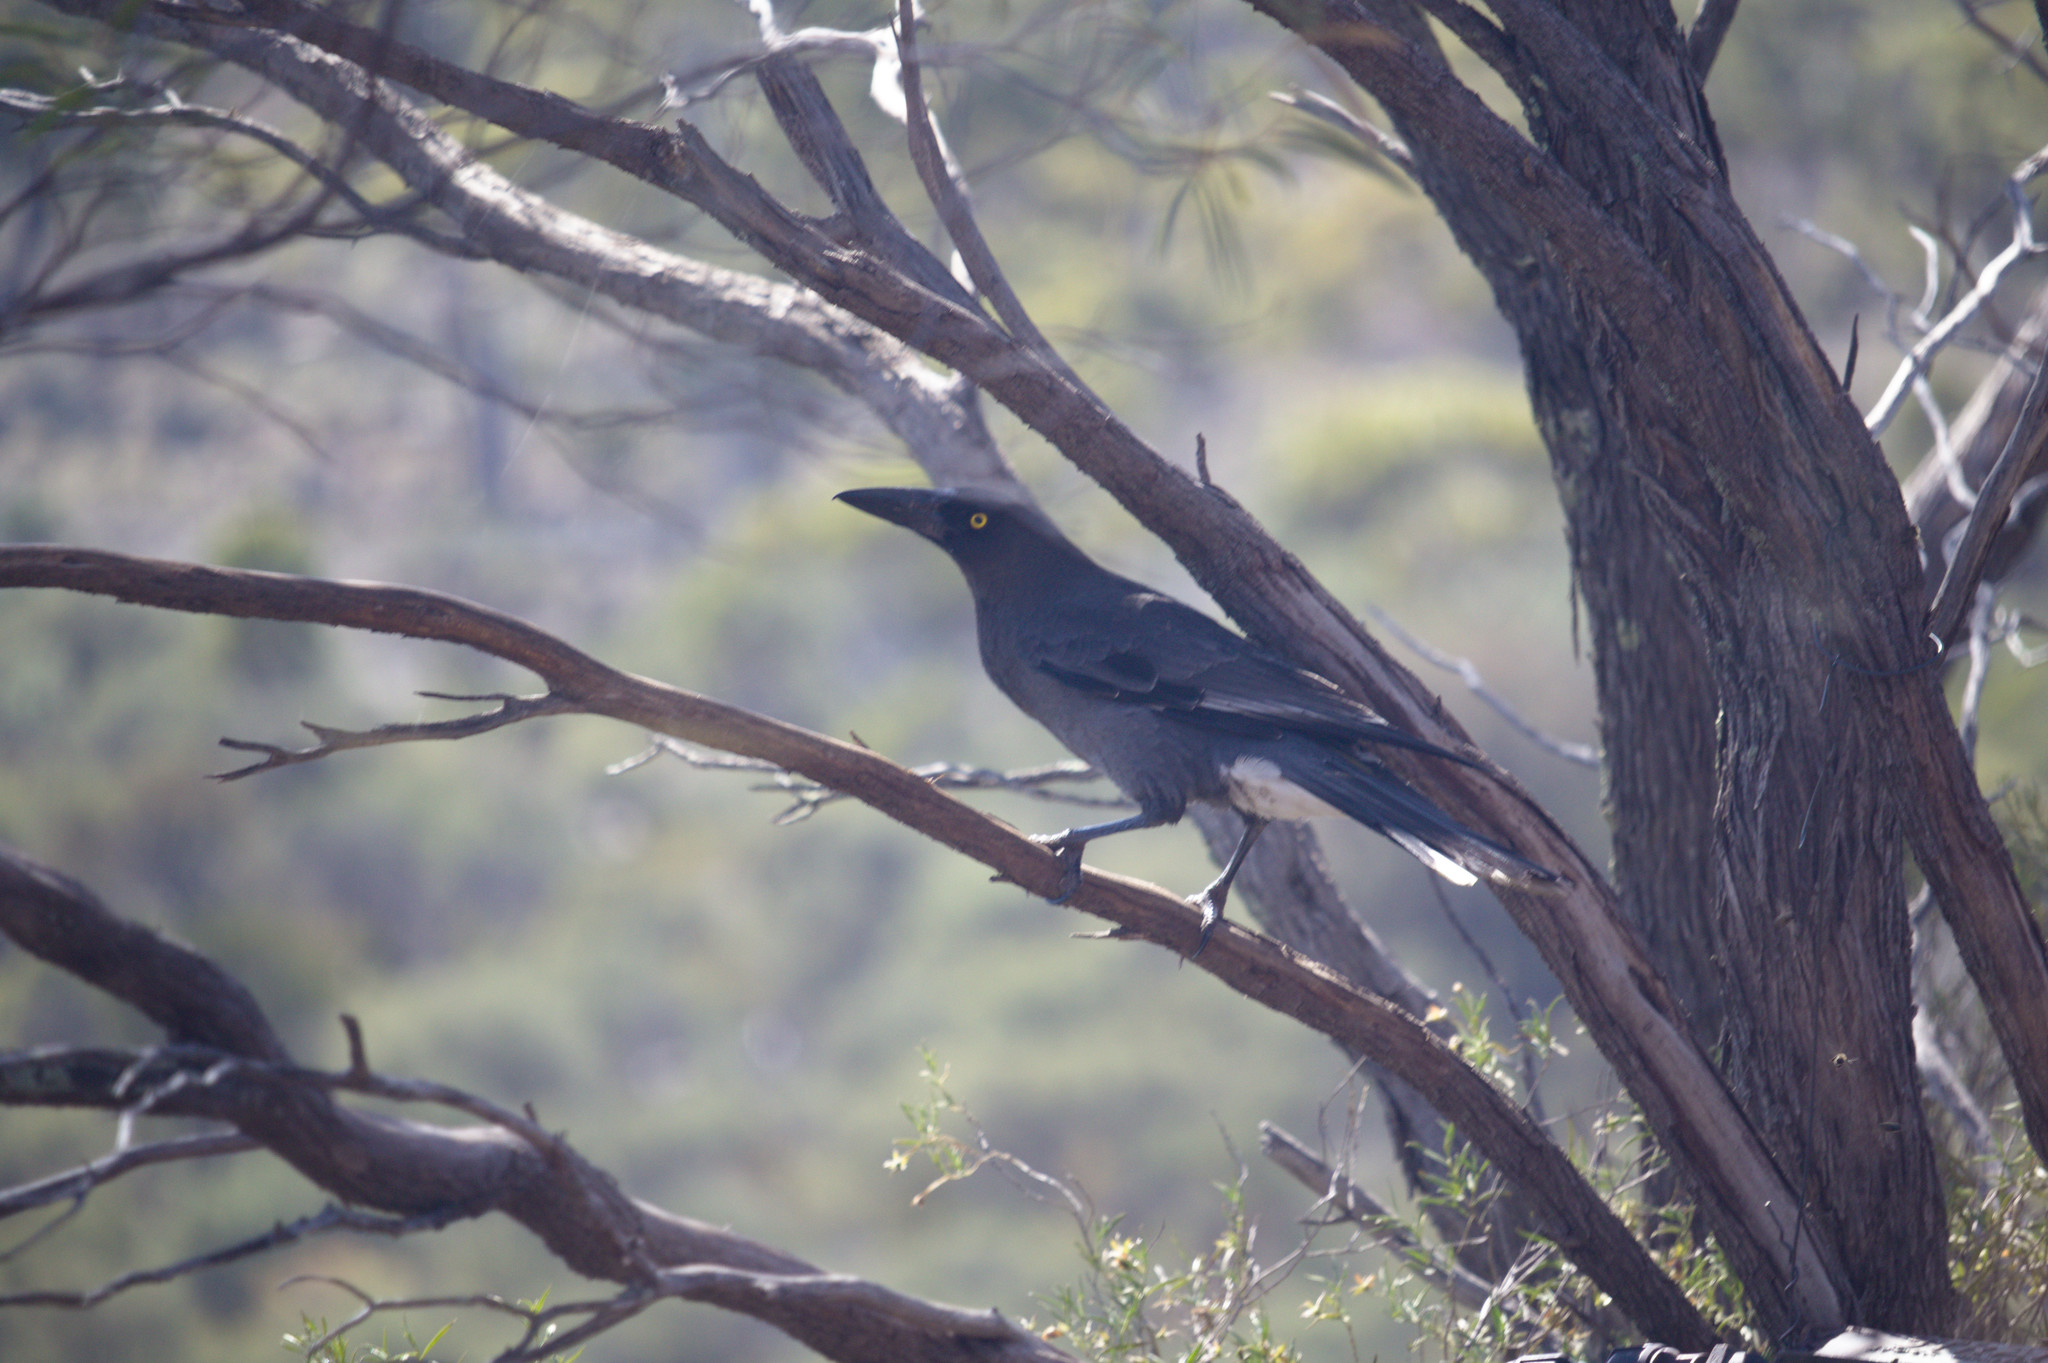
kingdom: Animalia
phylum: Chordata
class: Aves
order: Passeriformes
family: Cracticidae
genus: Strepera
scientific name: Strepera versicolor
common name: Grey currawong
